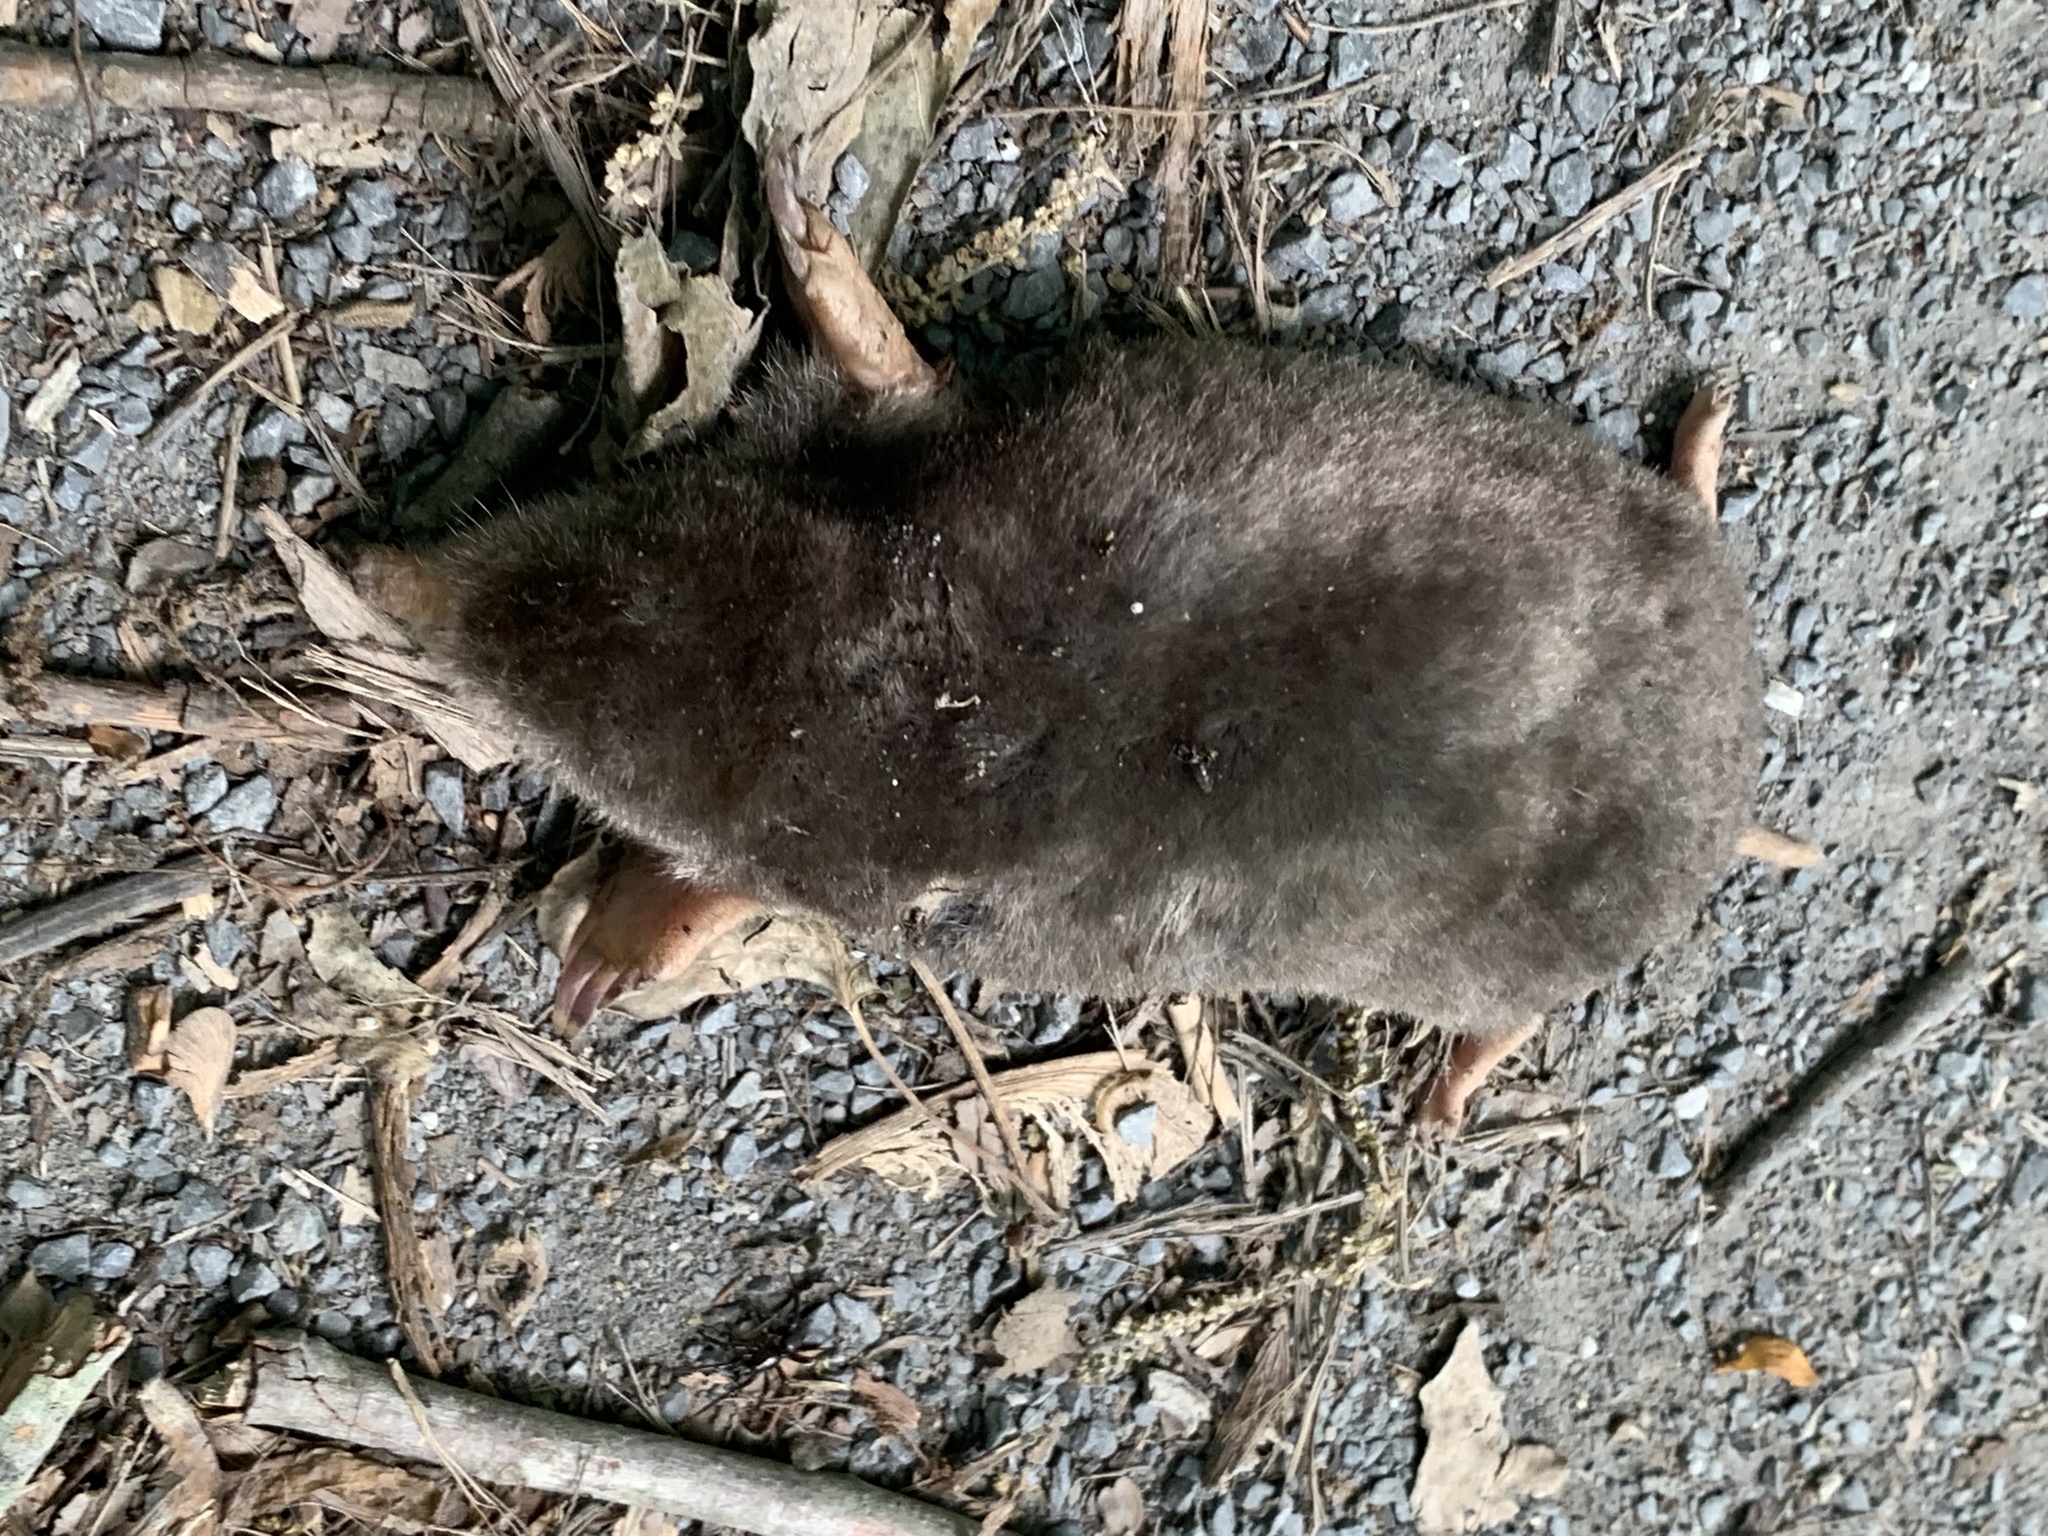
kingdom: Animalia
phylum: Chordata
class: Mammalia
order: Soricomorpha
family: Talpidae
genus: Scalopus
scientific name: Scalopus aquaticus
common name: Eastern mole
